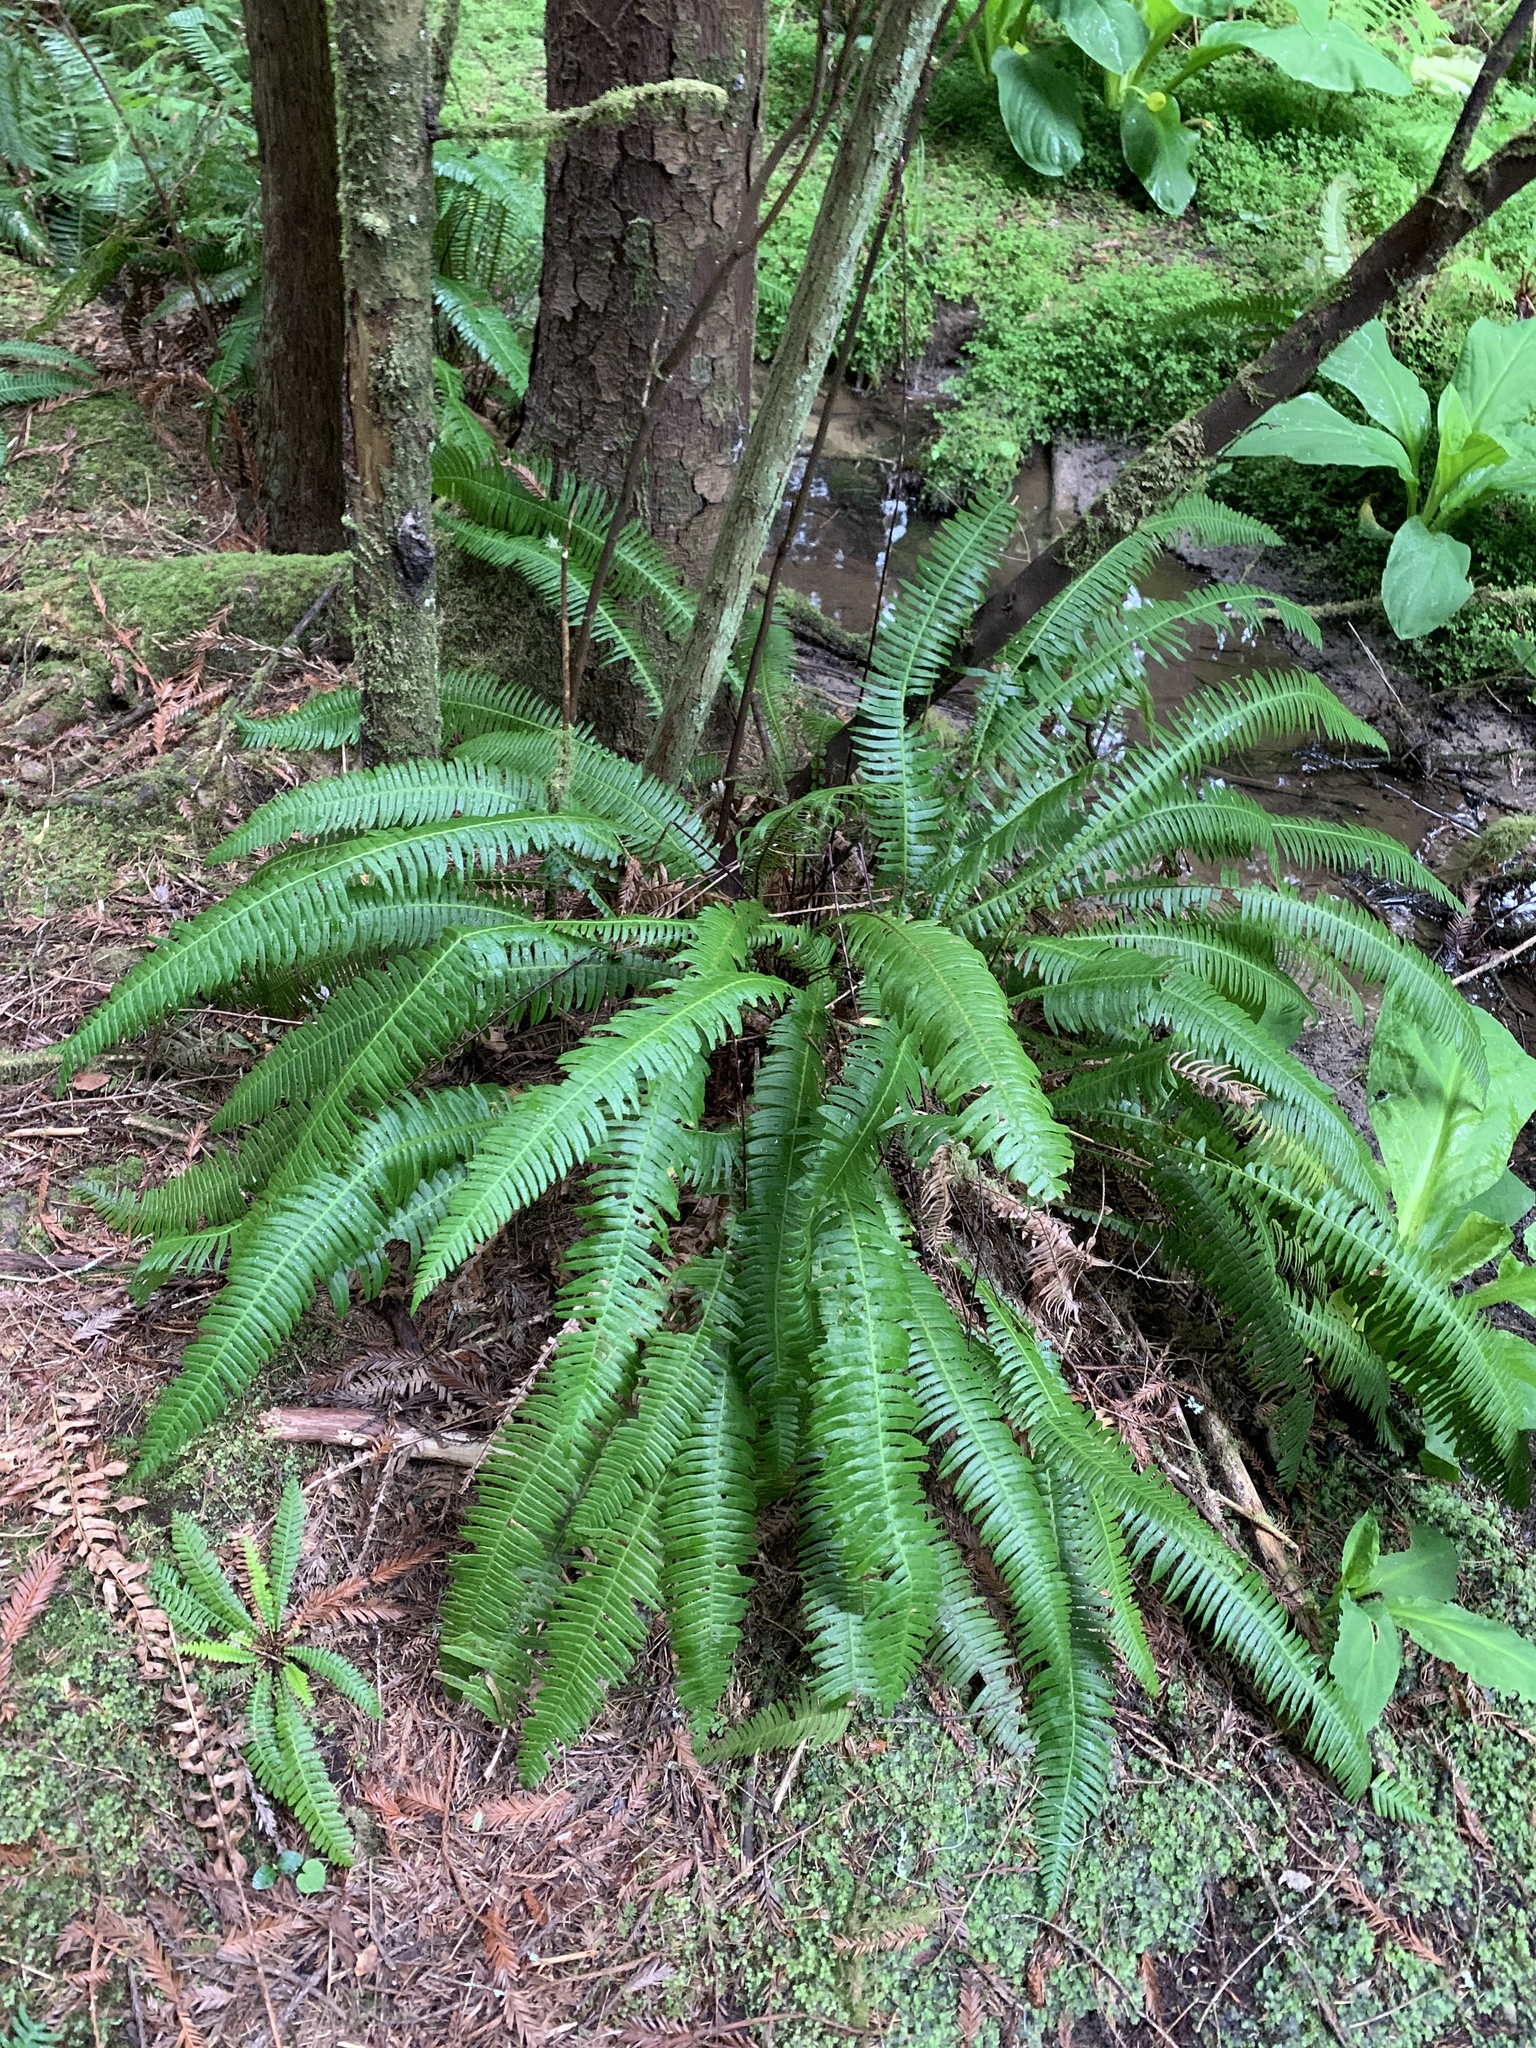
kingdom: Plantae
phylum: Tracheophyta
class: Polypodiopsida
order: Polypodiales
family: Blechnaceae
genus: Struthiopteris
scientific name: Struthiopteris spicant
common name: Deer fern
